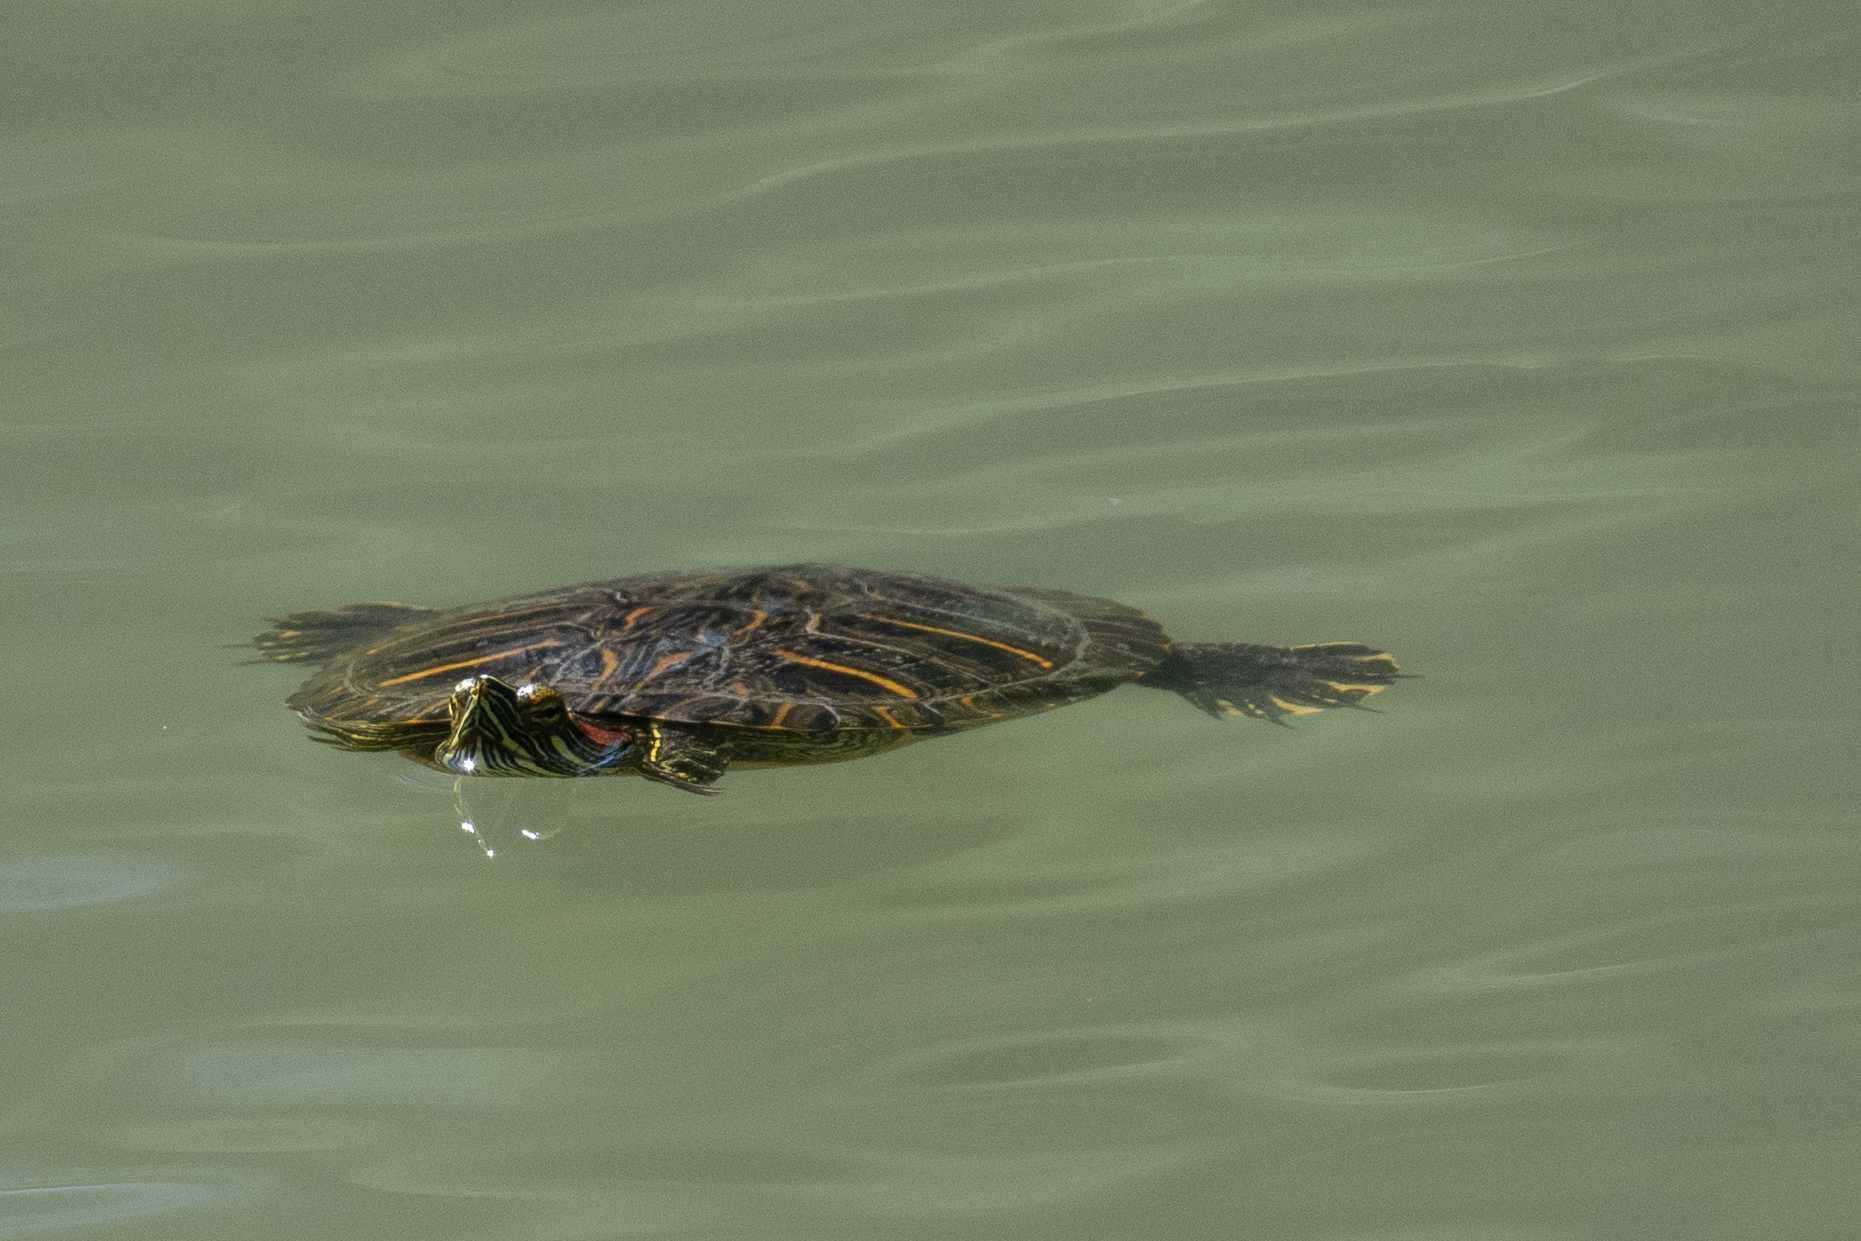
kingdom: Animalia
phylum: Chordata
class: Testudines
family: Emydidae
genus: Trachemys
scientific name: Trachemys scripta
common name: Slider
